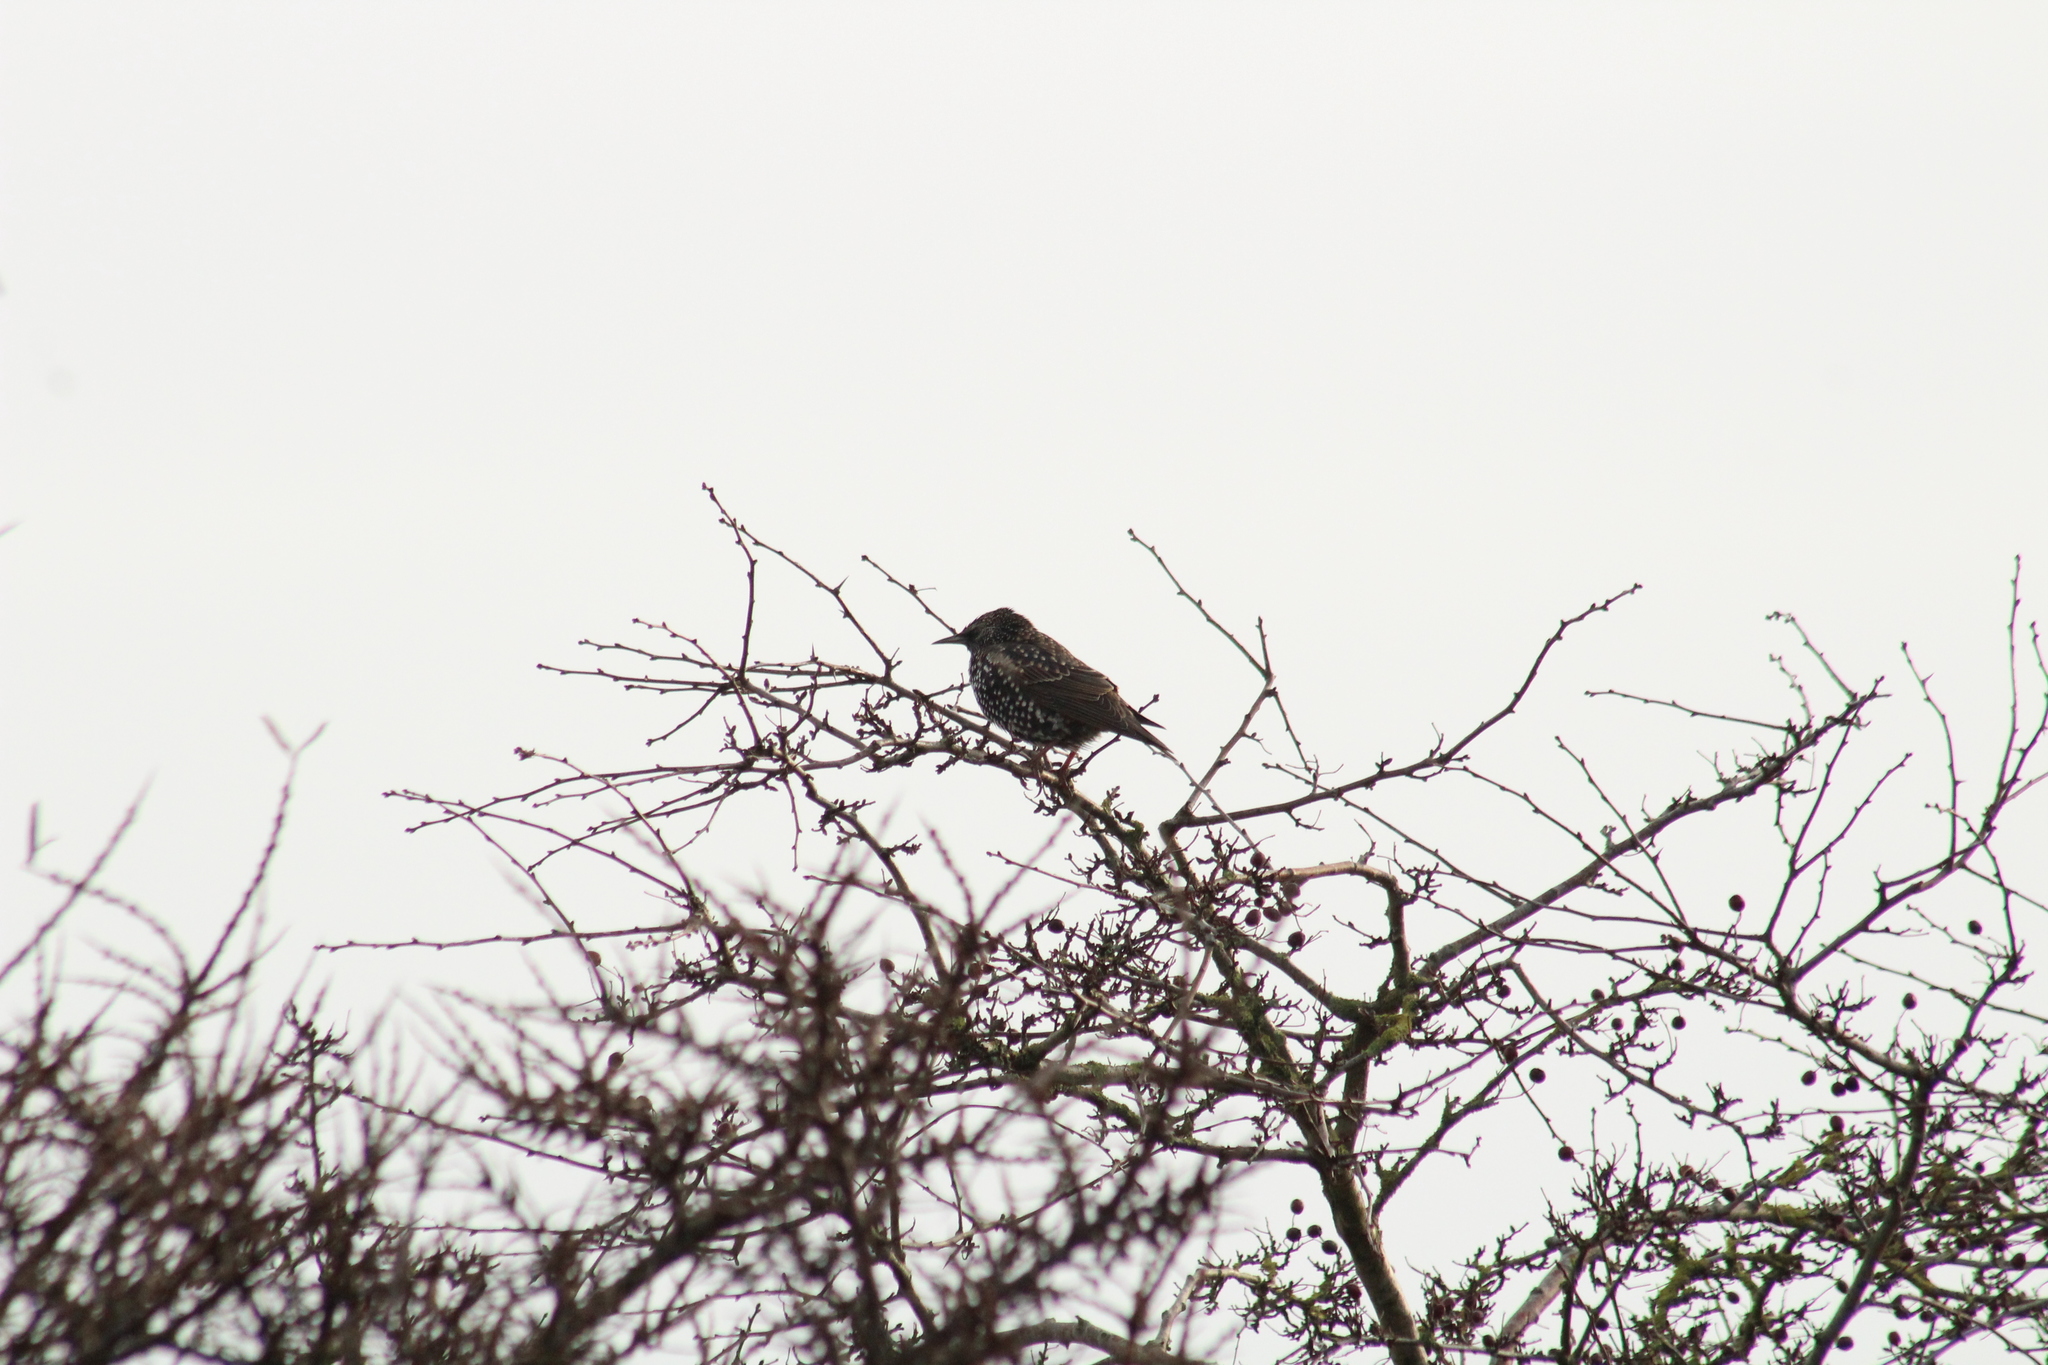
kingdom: Animalia
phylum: Chordata
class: Aves
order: Passeriformes
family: Sturnidae
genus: Sturnus
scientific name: Sturnus vulgaris
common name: Common starling
